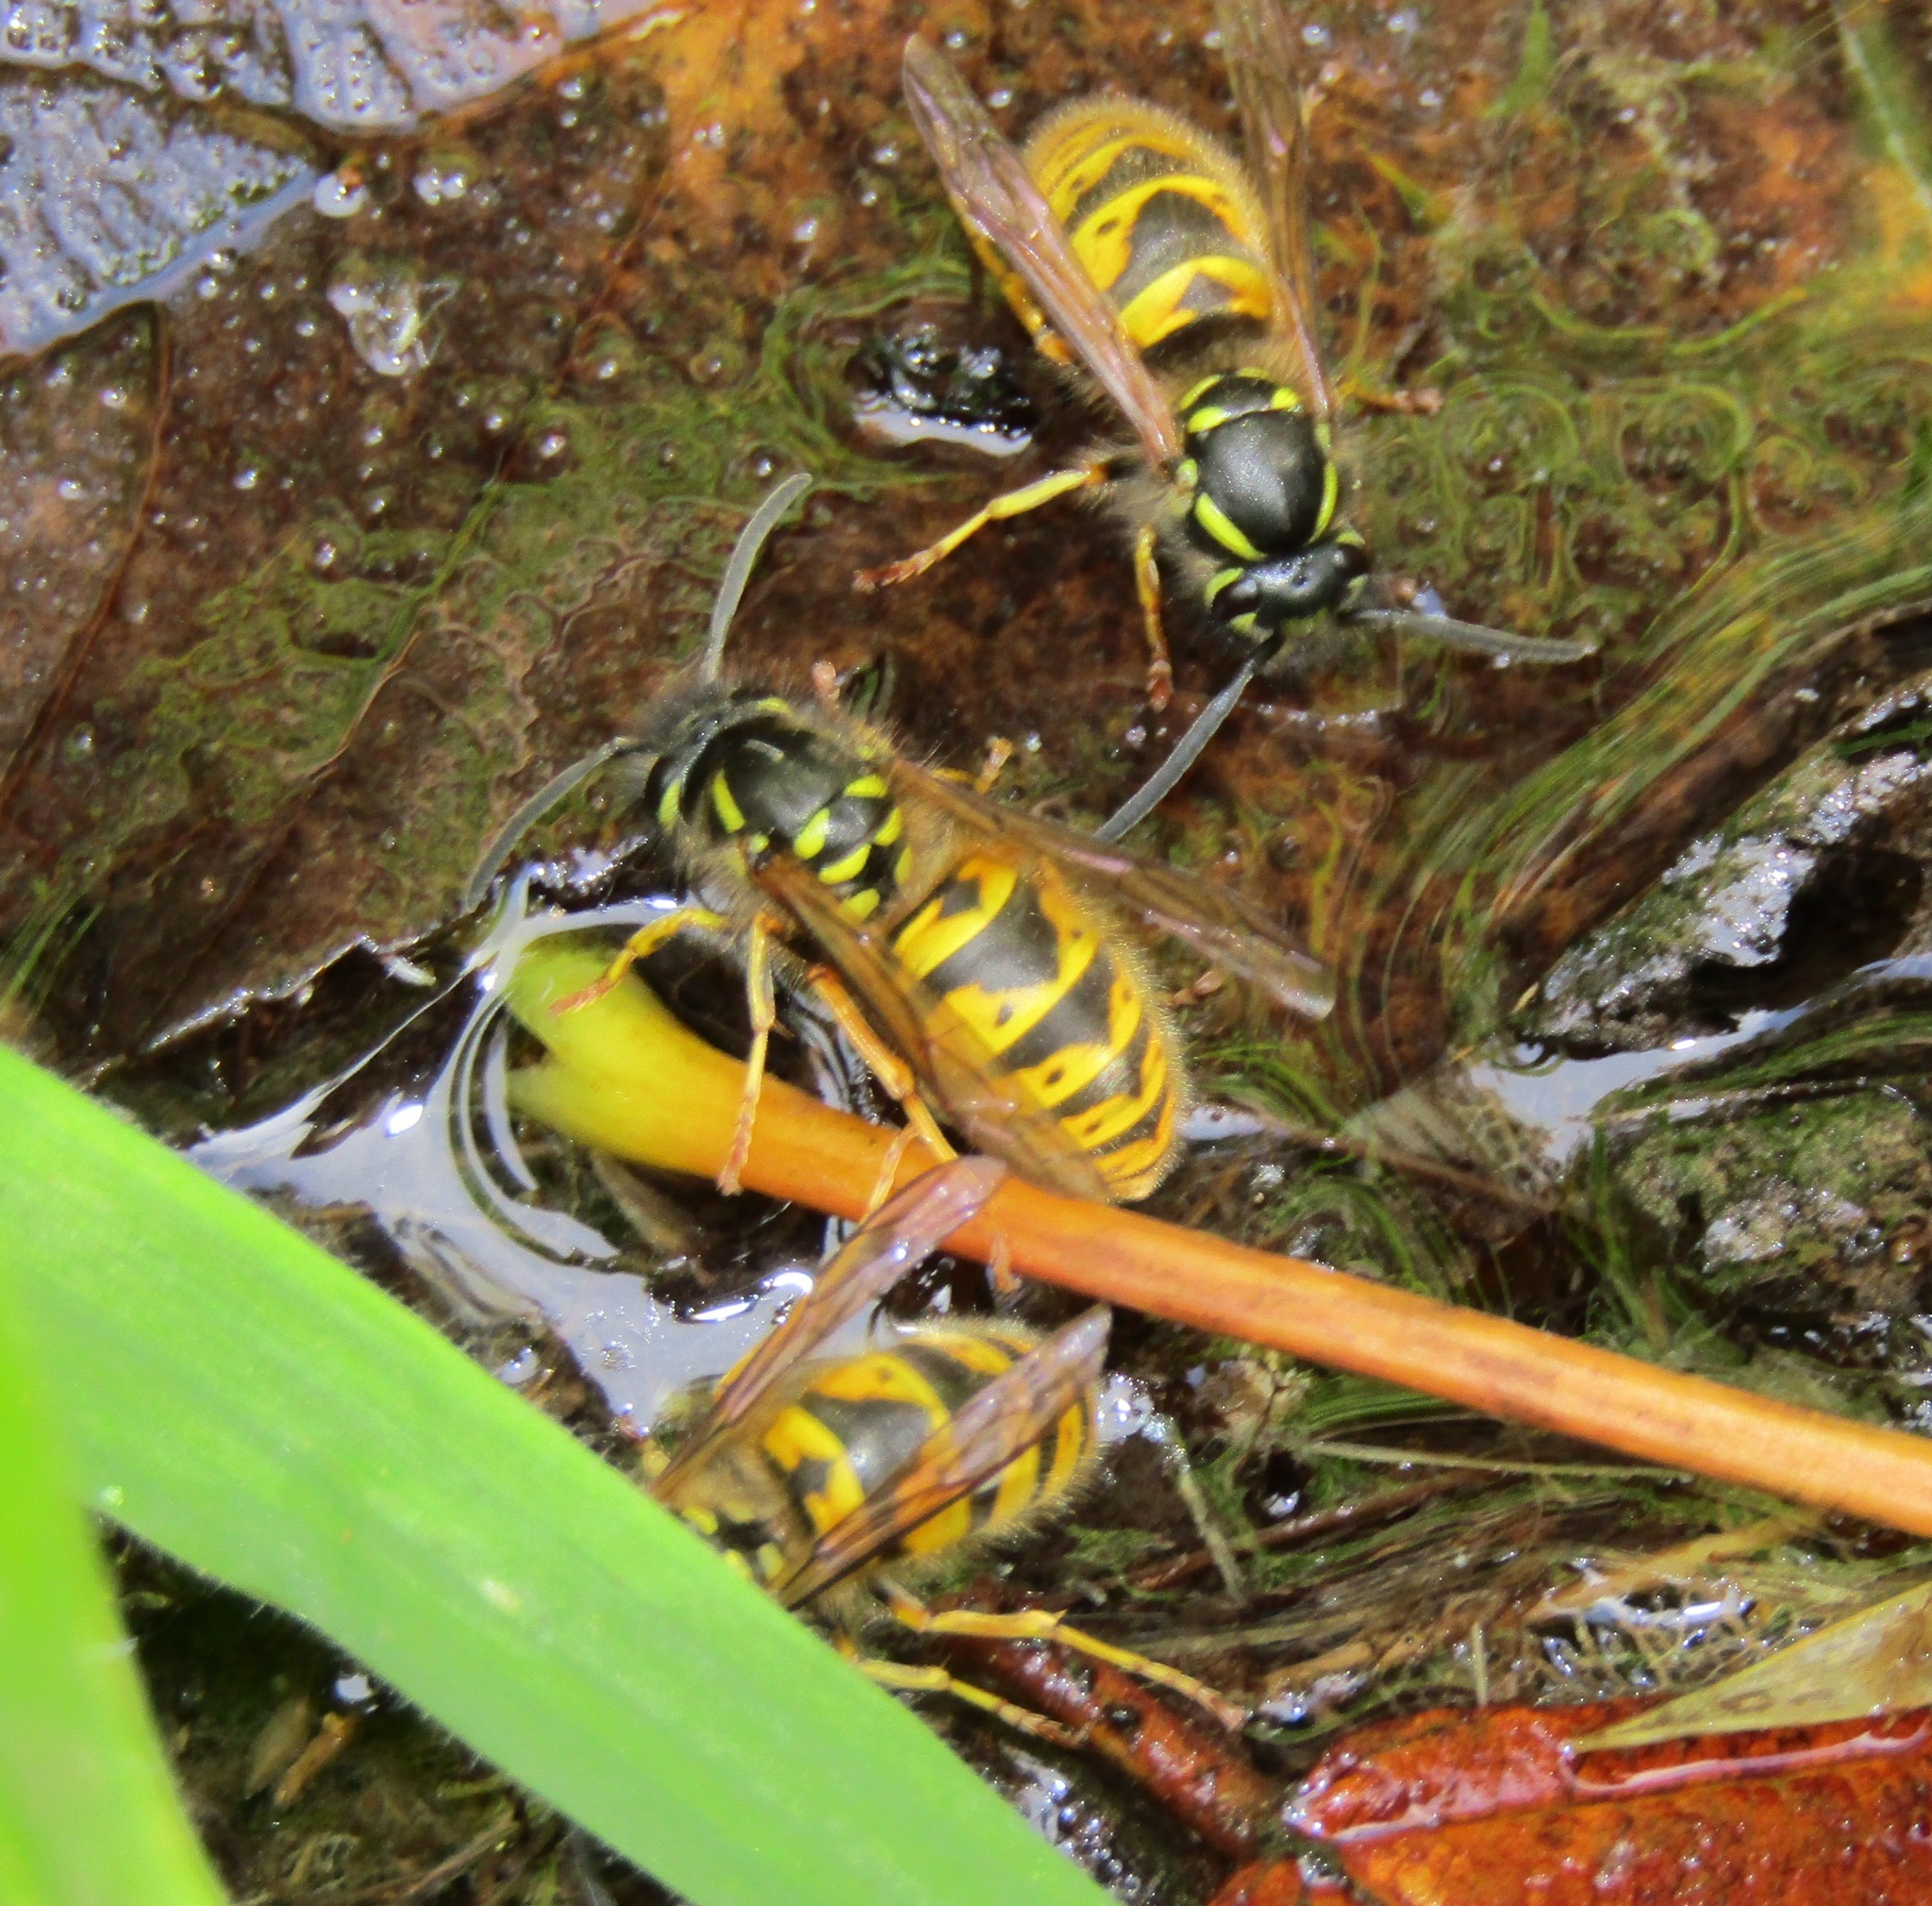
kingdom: Animalia
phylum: Arthropoda
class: Insecta
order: Hymenoptera
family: Vespidae
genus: Vespula
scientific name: Vespula vulgaris
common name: Common wasp
